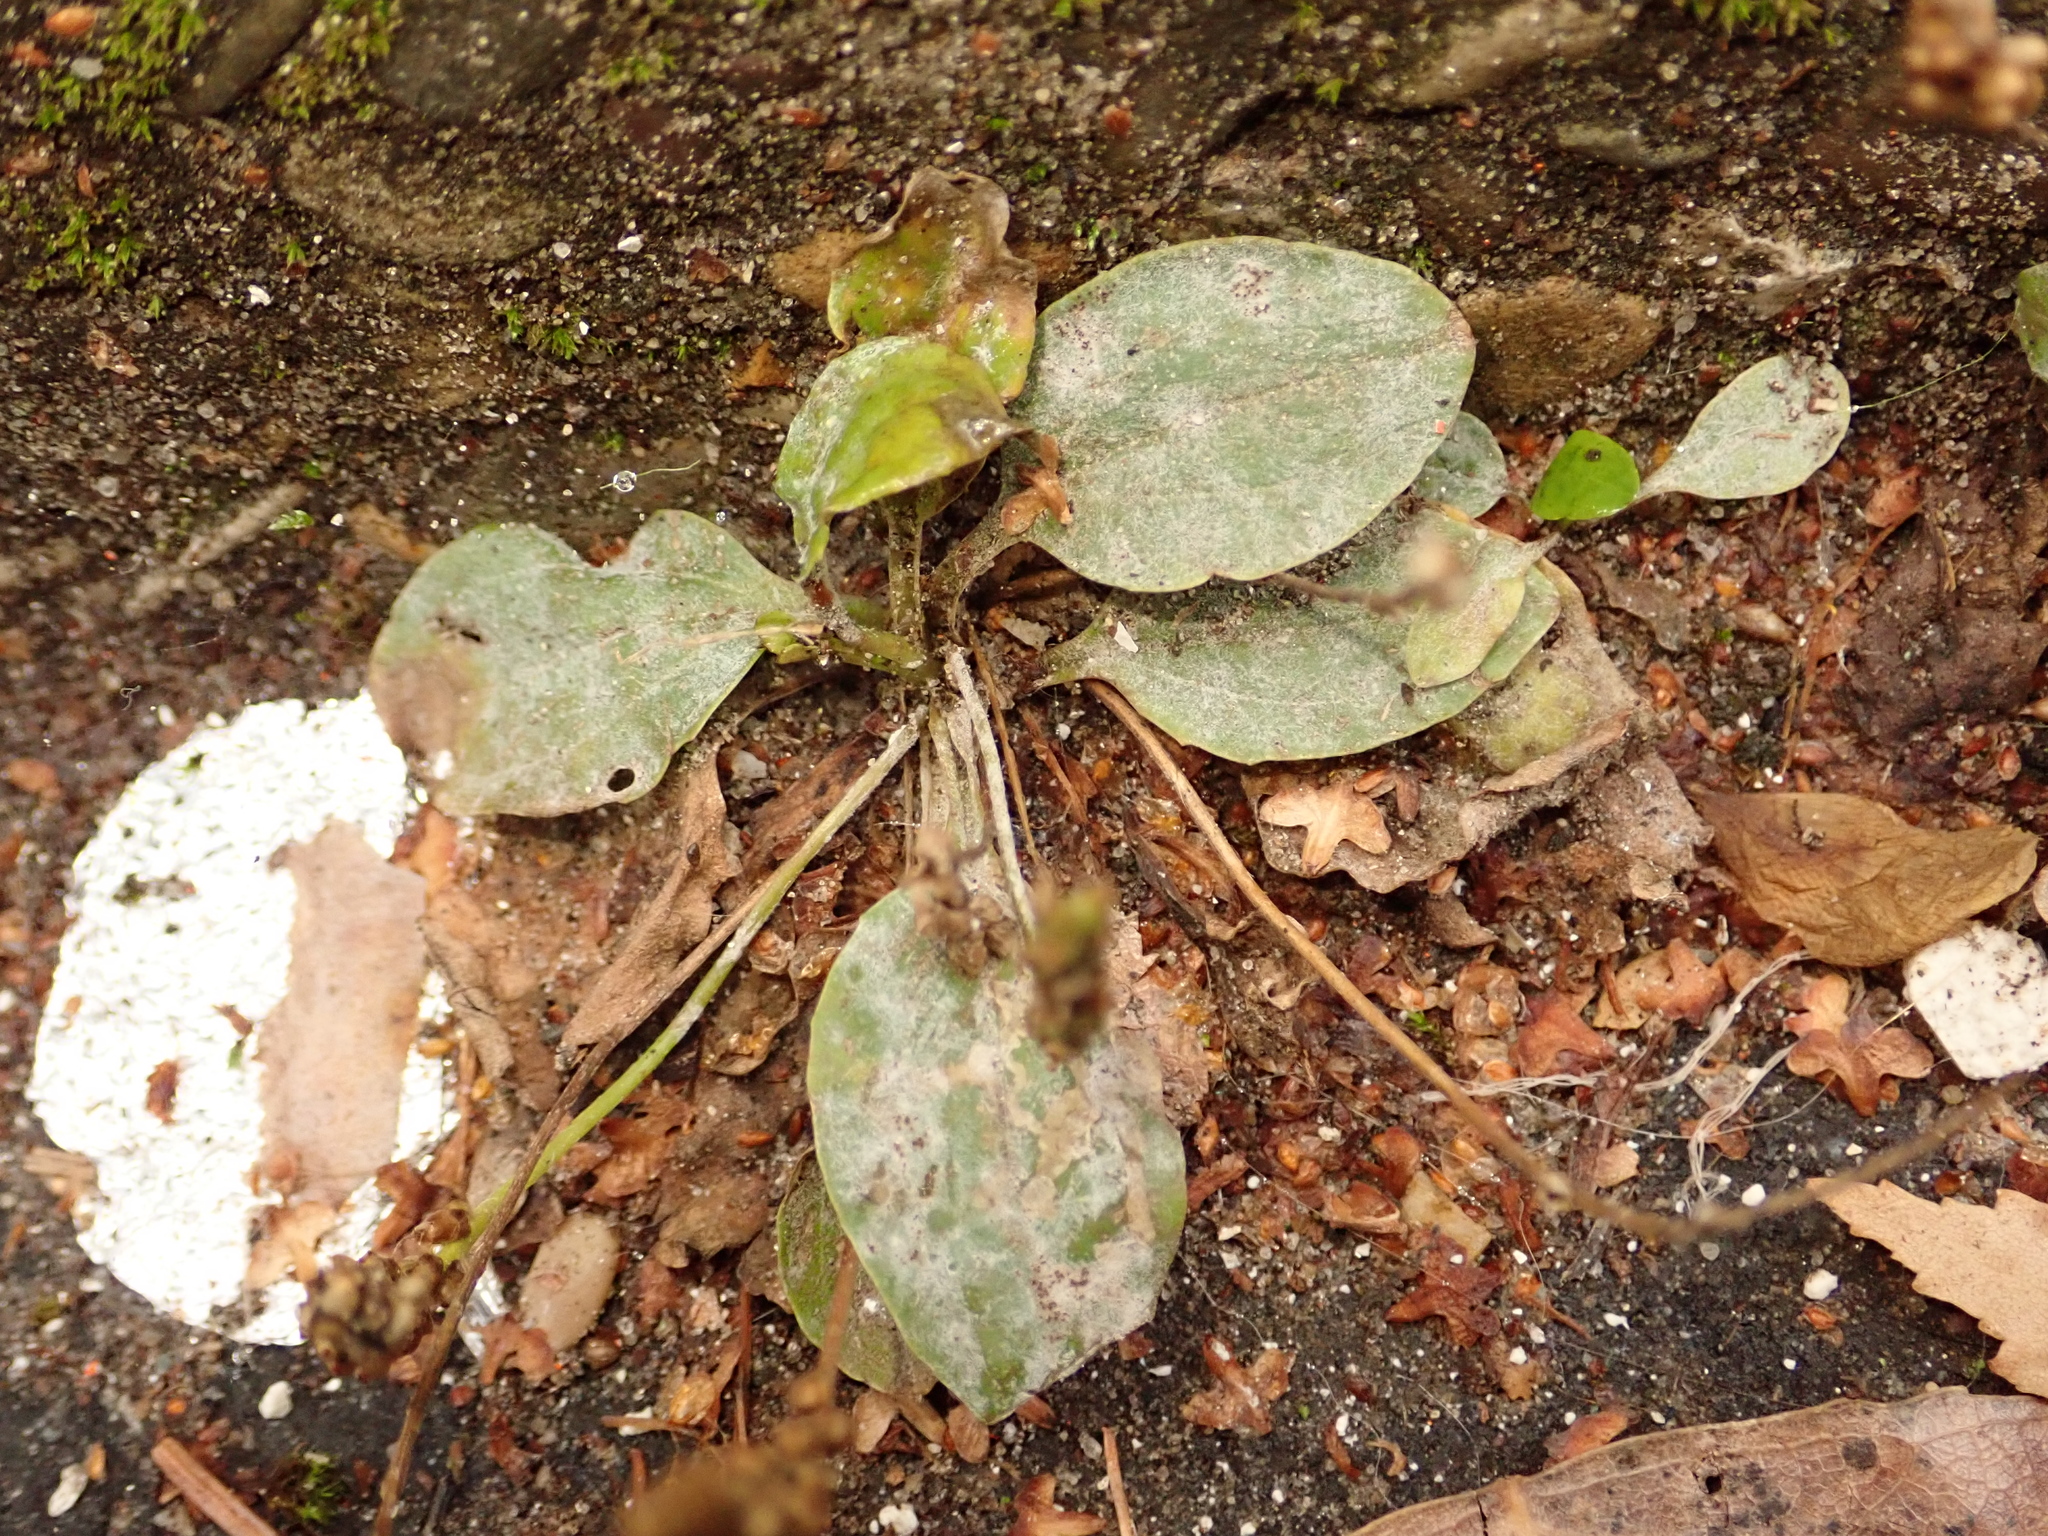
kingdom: Plantae
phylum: Tracheophyta
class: Magnoliopsida
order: Lamiales
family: Plantaginaceae
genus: Plantago
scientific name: Plantago major
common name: Common plantain
